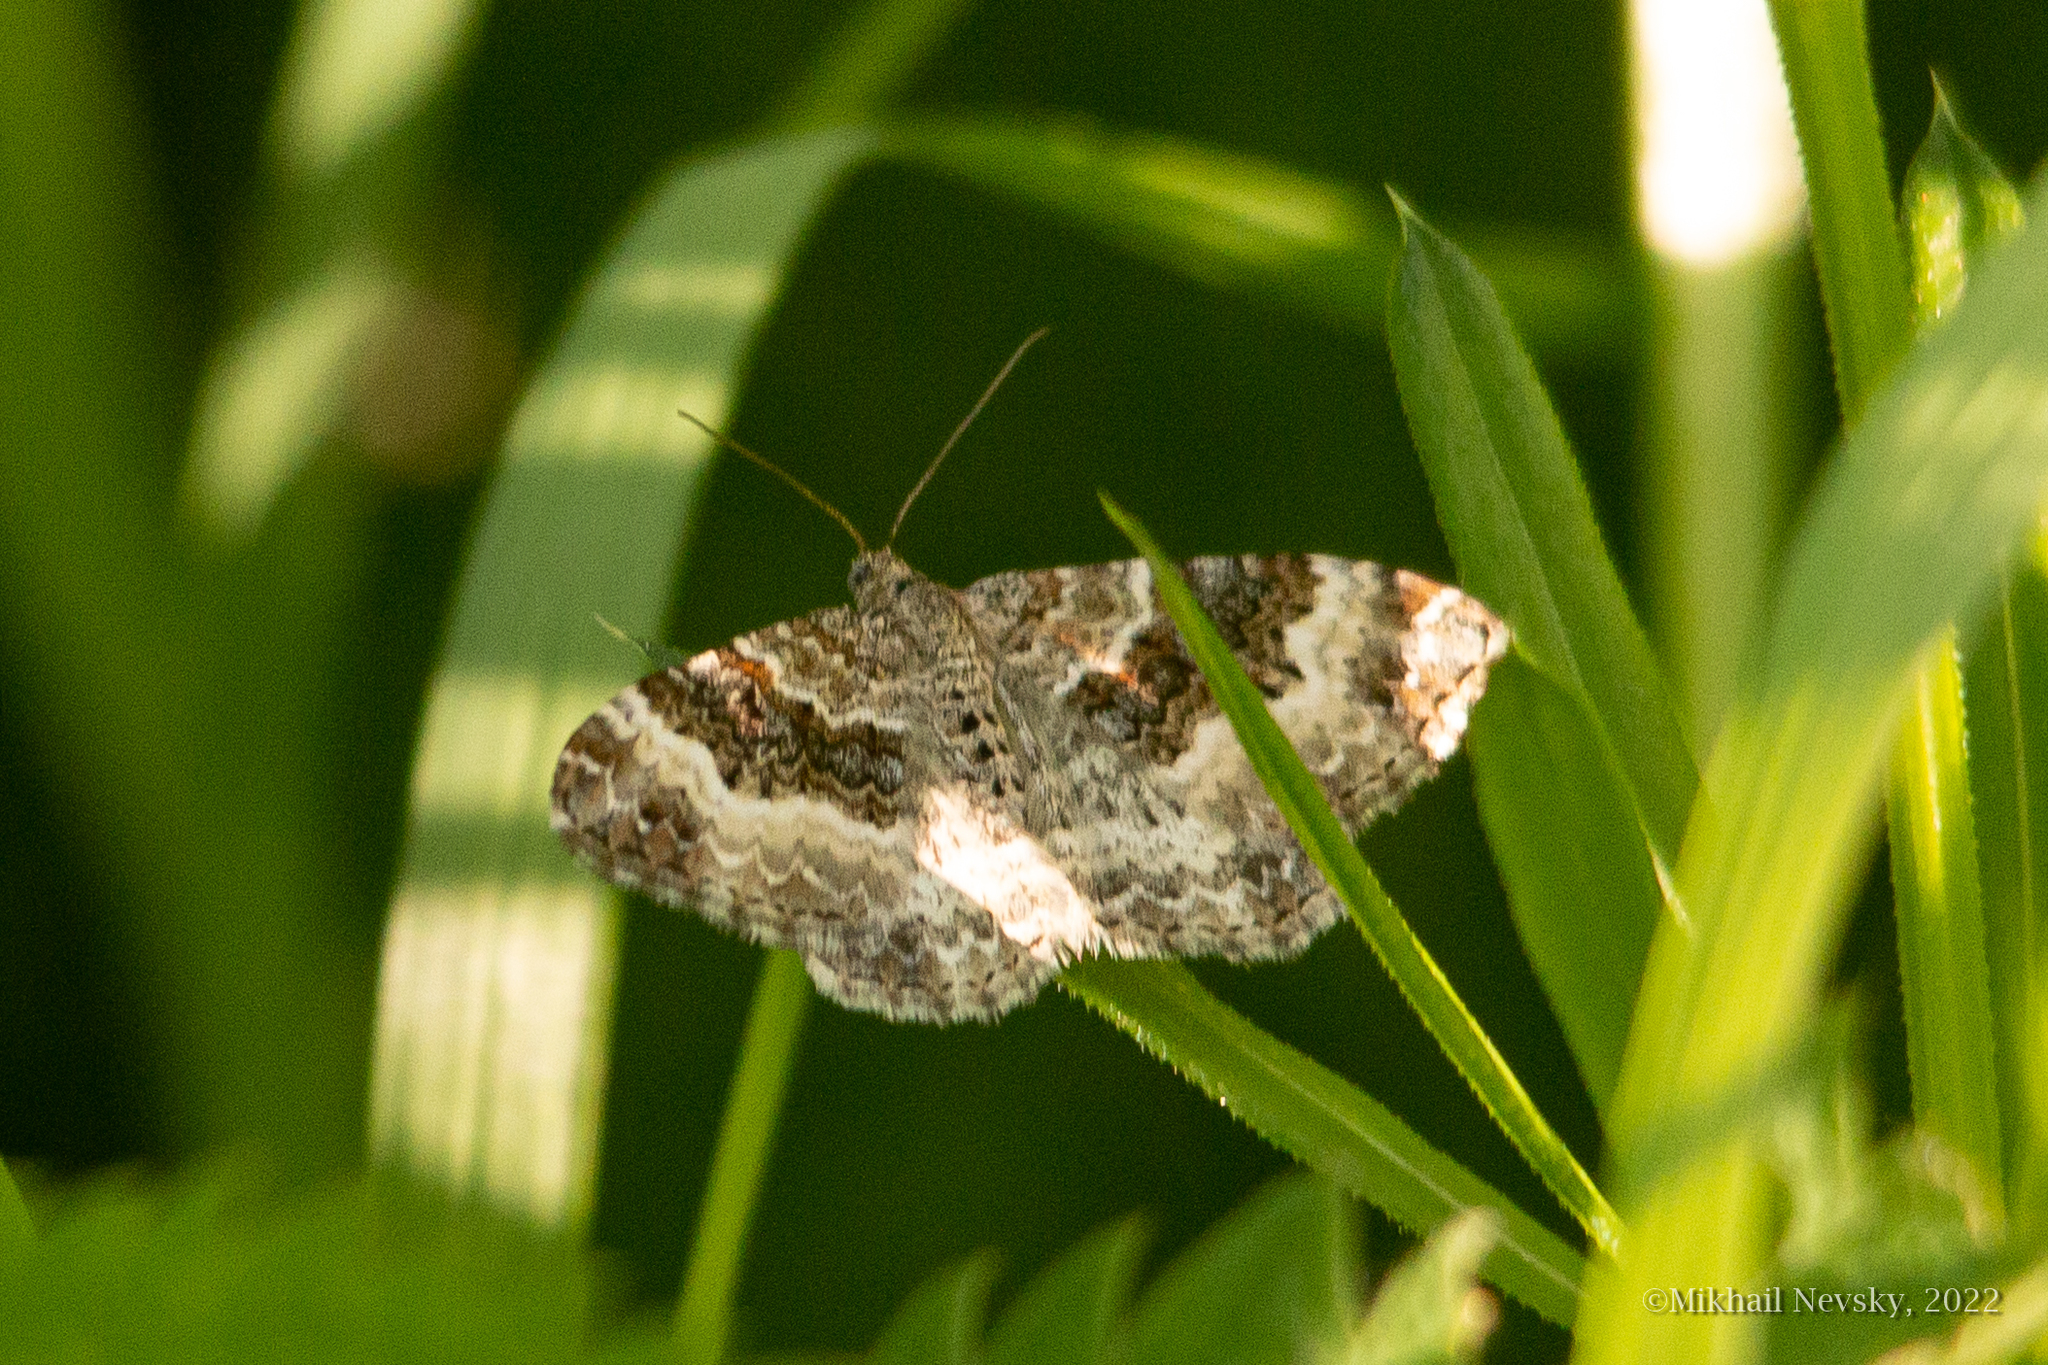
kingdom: Animalia
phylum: Arthropoda
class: Insecta
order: Lepidoptera
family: Geometridae
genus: Epirrhoe
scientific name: Epirrhoe alternata
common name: Common carpet
